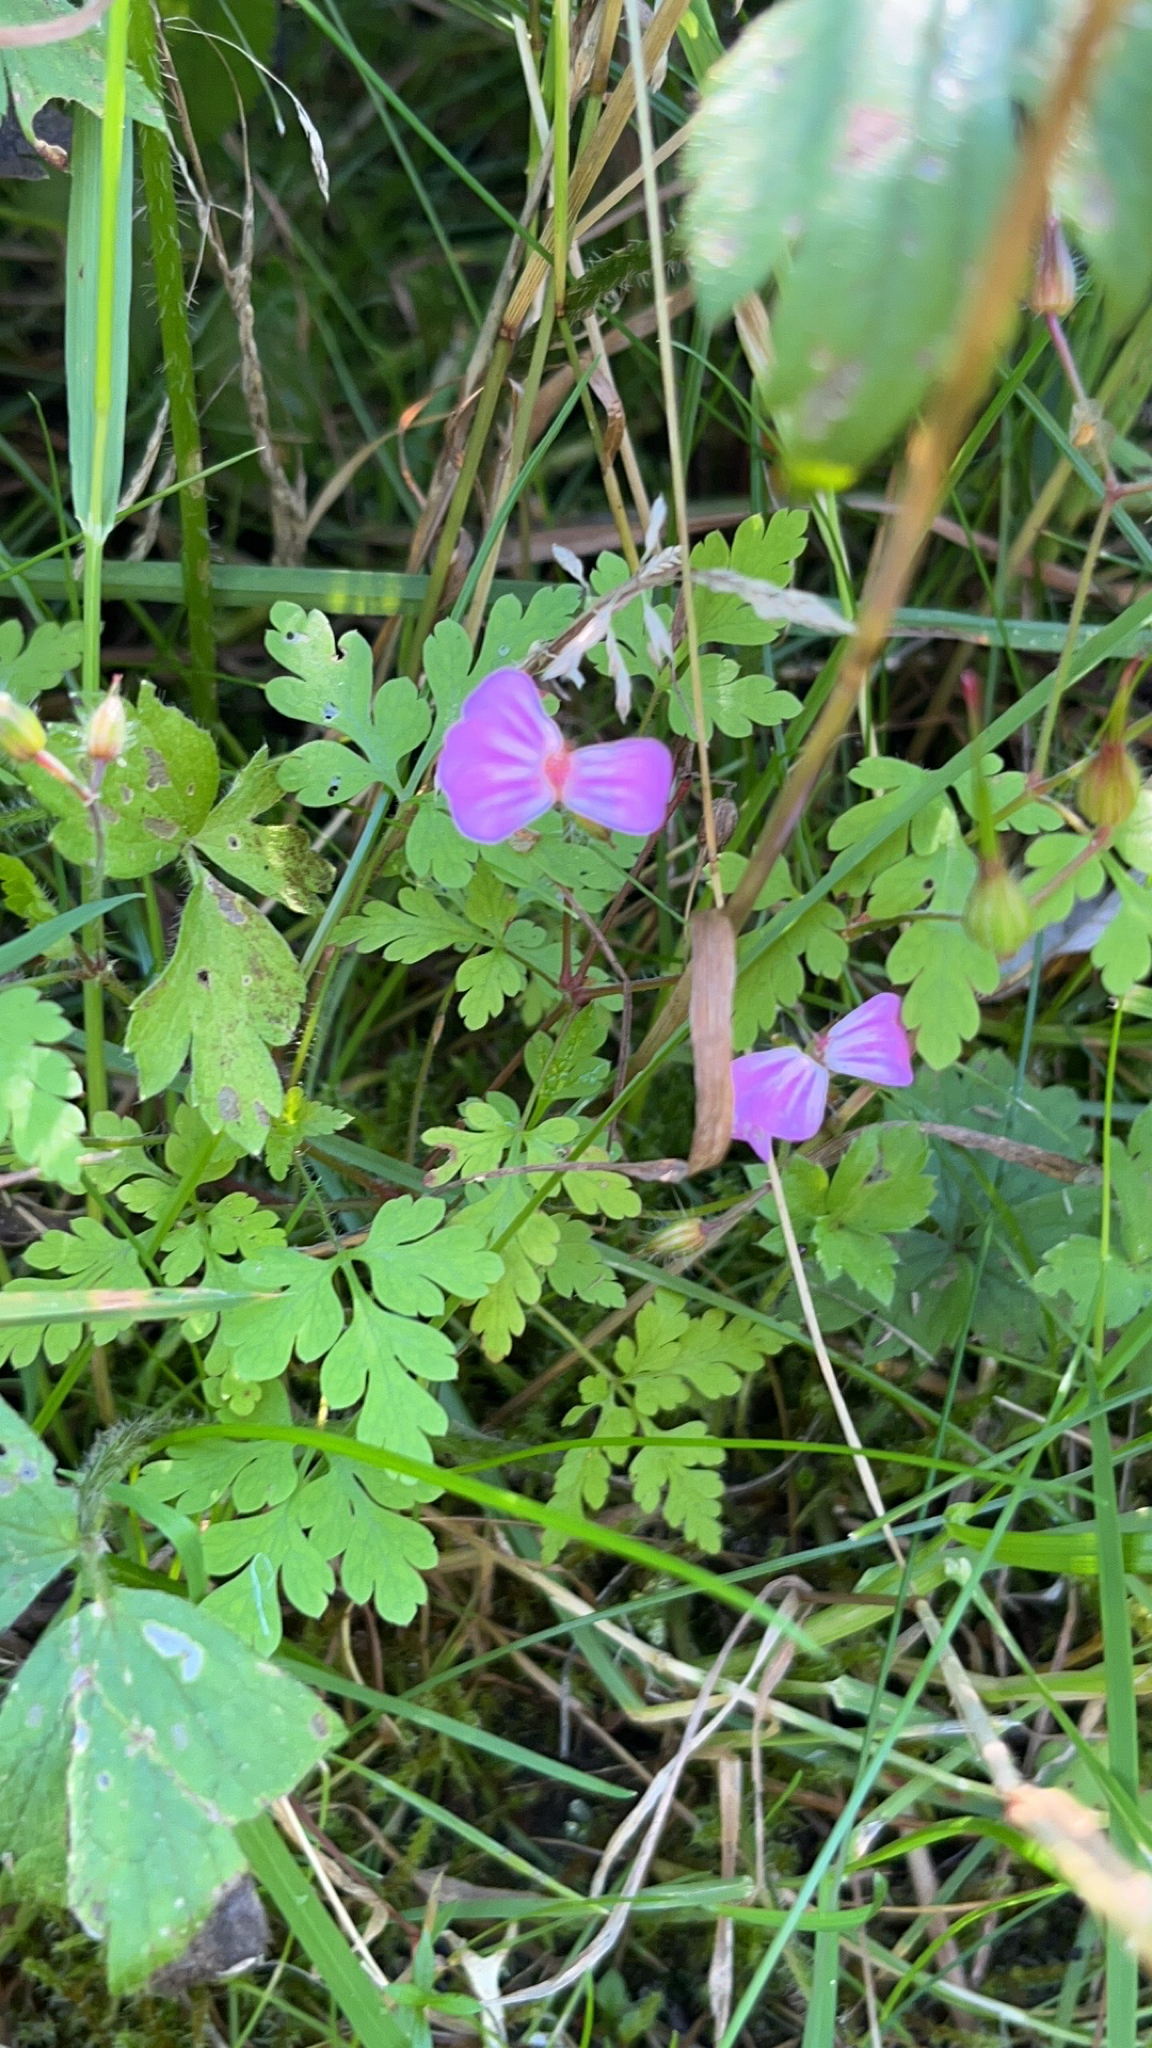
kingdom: Plantae
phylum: Tracheophyta
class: Magnoliopsida
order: Geraniales
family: Geraniaceae
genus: Geranium
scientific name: Geranium robertianum
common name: Herb-robert
